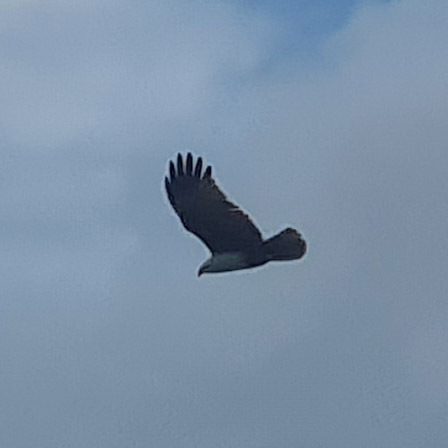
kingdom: Animalia
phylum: Chordata
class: Aves
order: Accipitriformes
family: Accipitridae
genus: Haliastur
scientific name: Haliastur indus
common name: Brahminy kite
